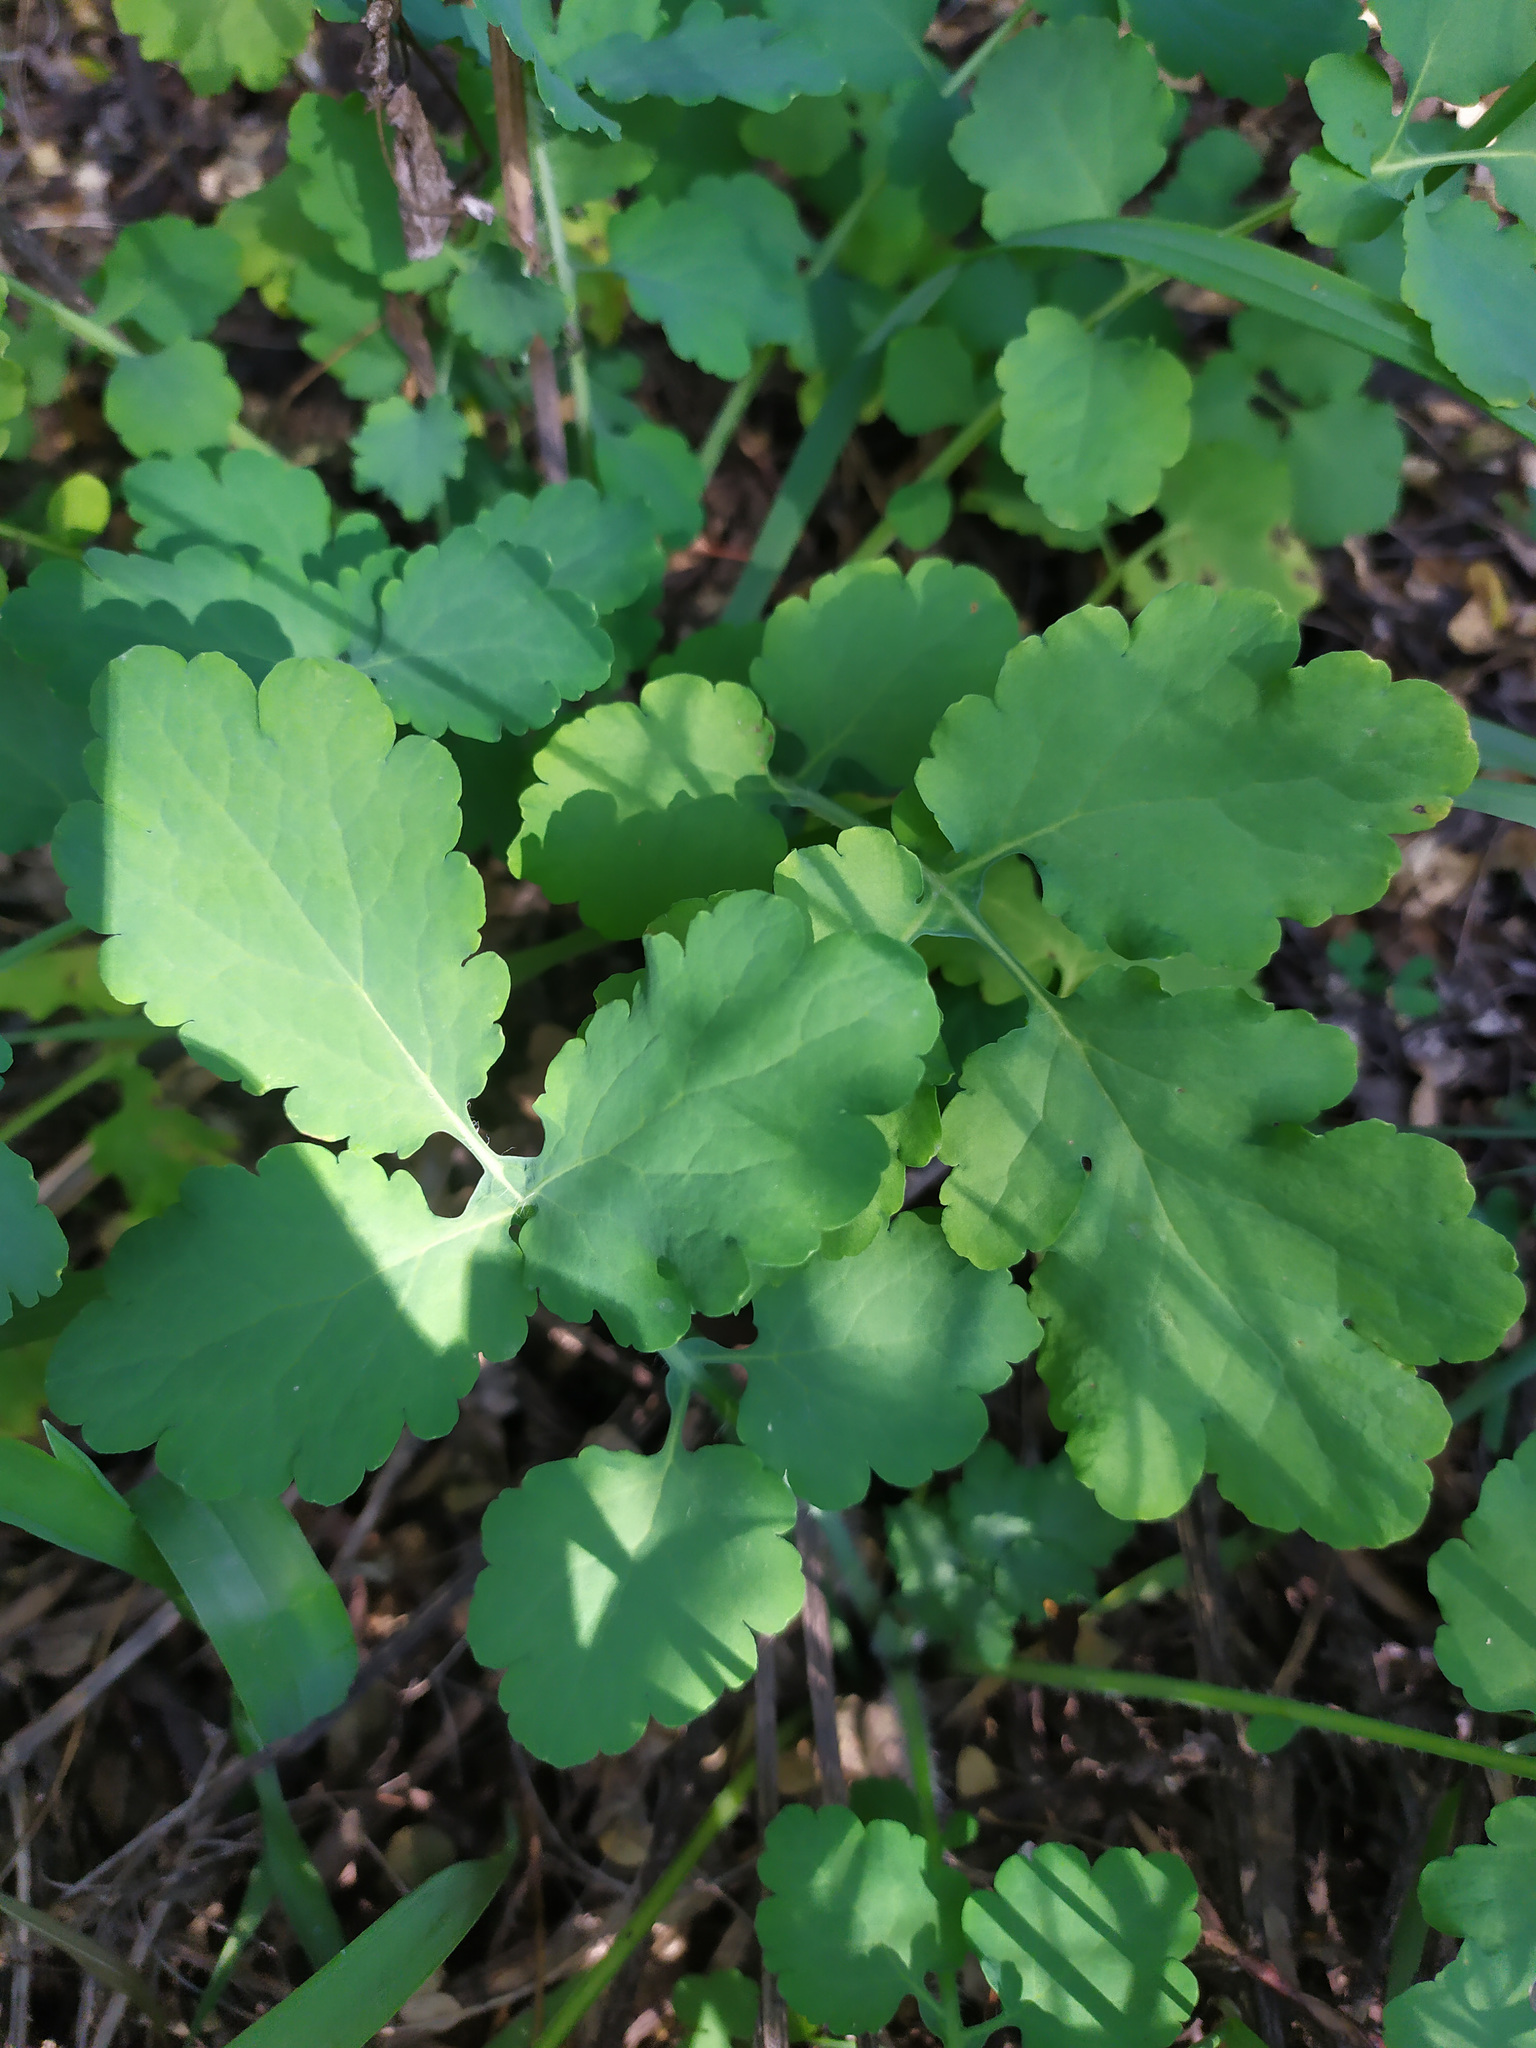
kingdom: Plantae
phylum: Tracheophyta
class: Magnoliopsida
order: Ranunculales
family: Papaveraceae
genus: Chelidonium
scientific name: Chelidonium majus
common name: Greater celandine
